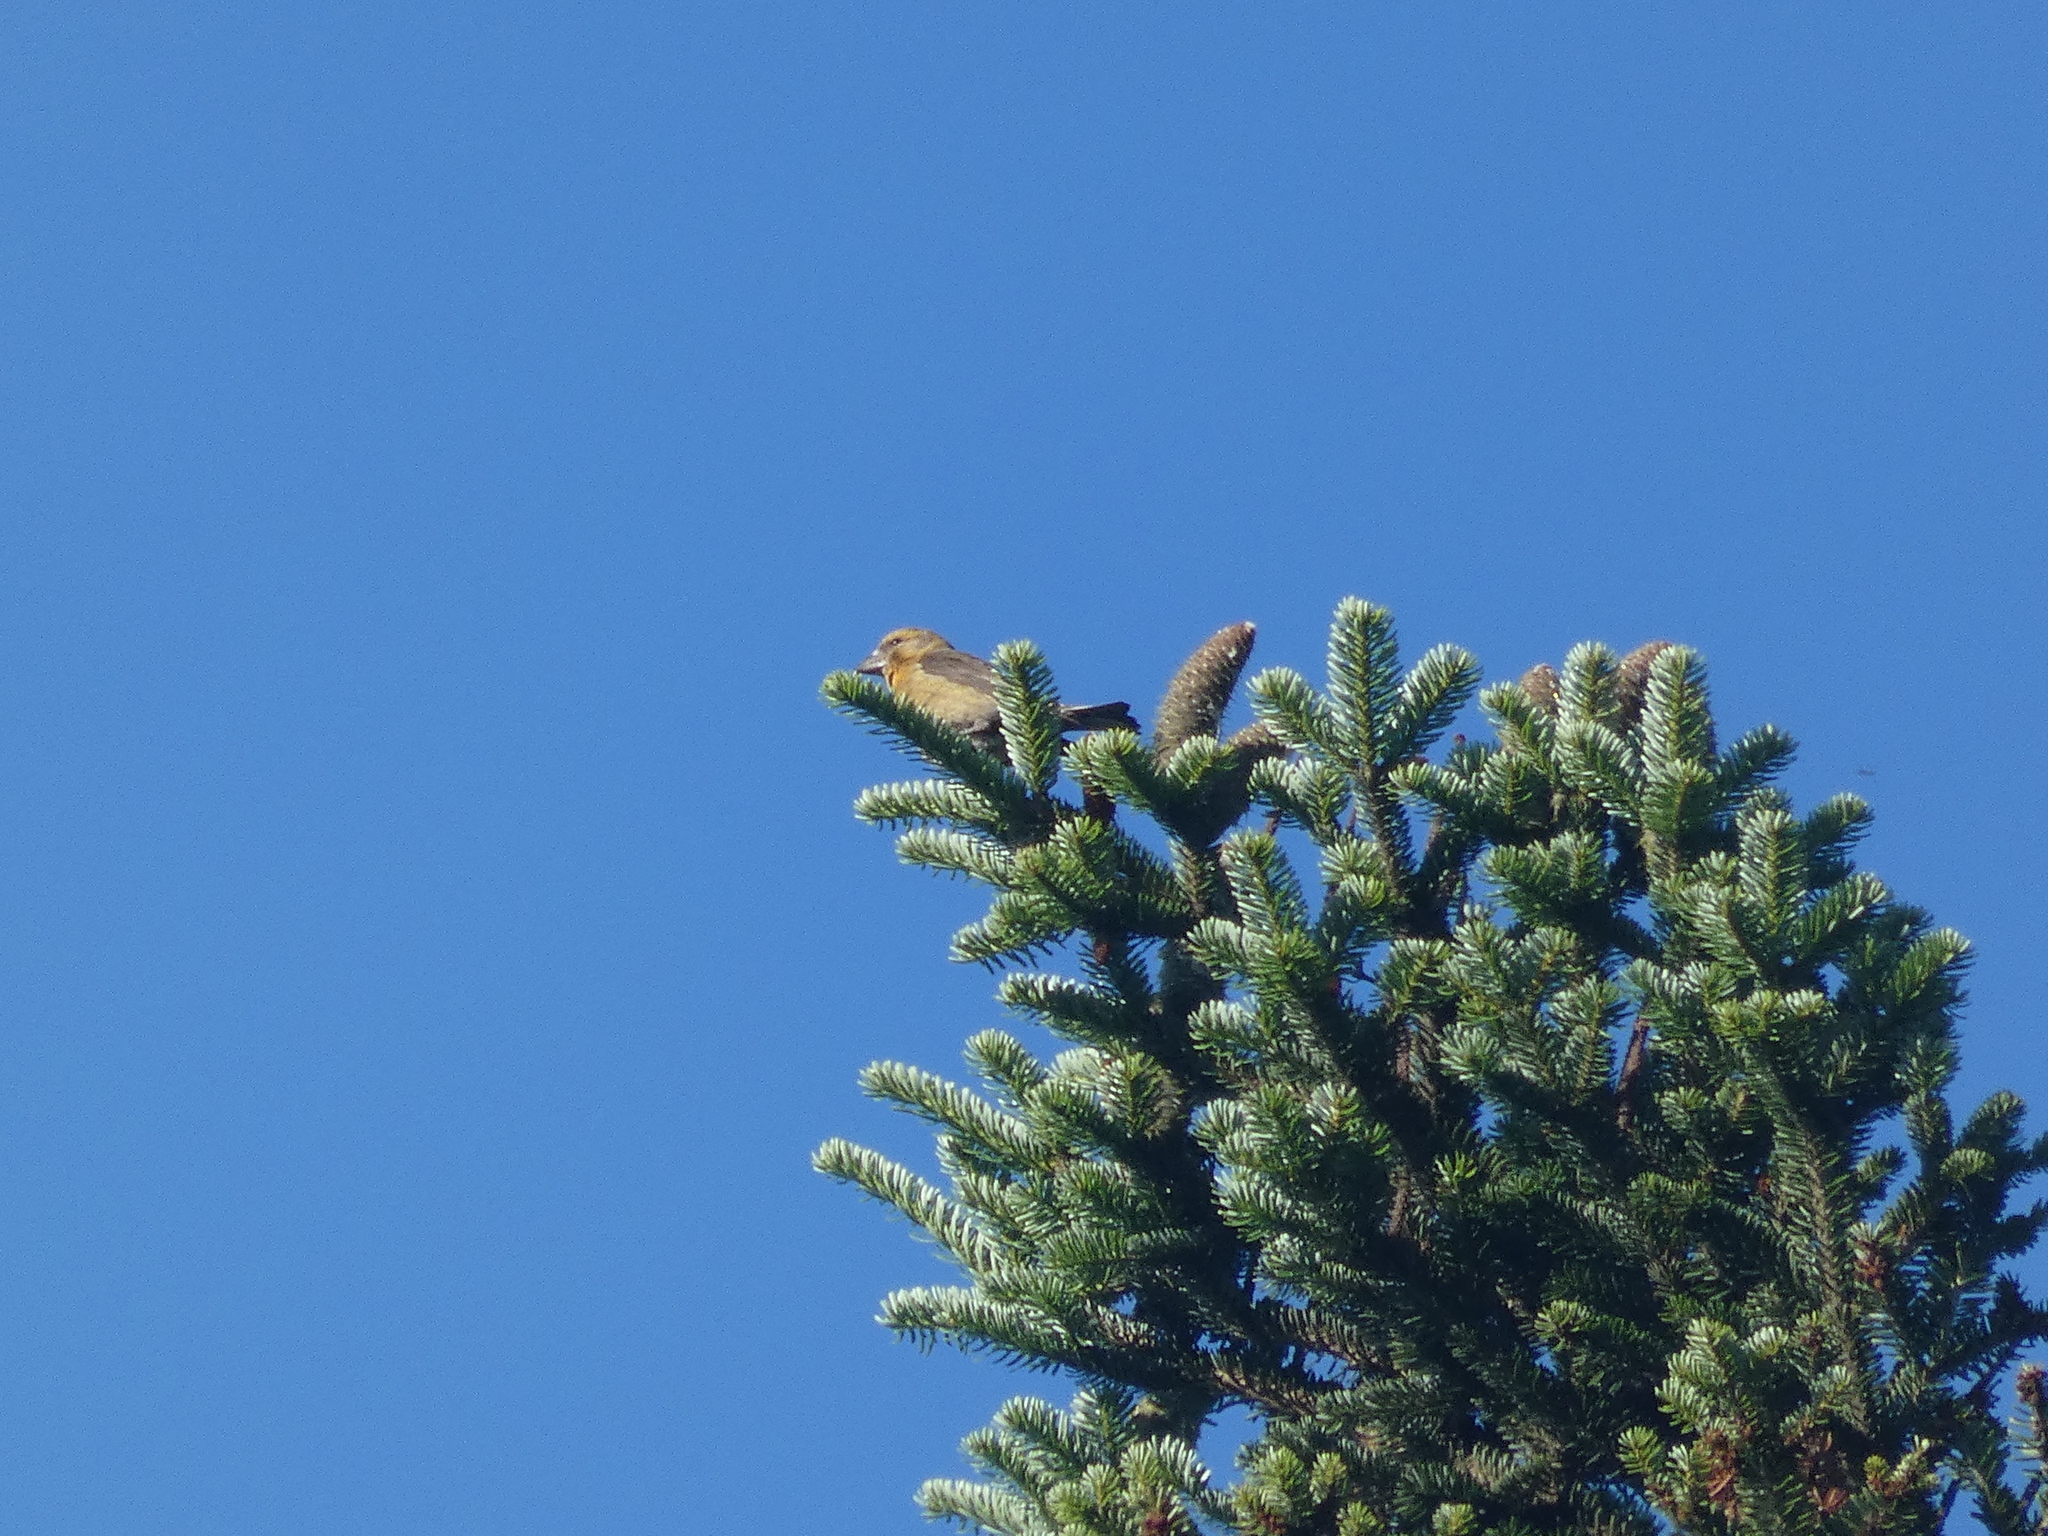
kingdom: Animalia
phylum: Chordata
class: Aves
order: Passeriformes
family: Fringillidae
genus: Loxia
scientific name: Loxia curvirostra
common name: Red crossbill
